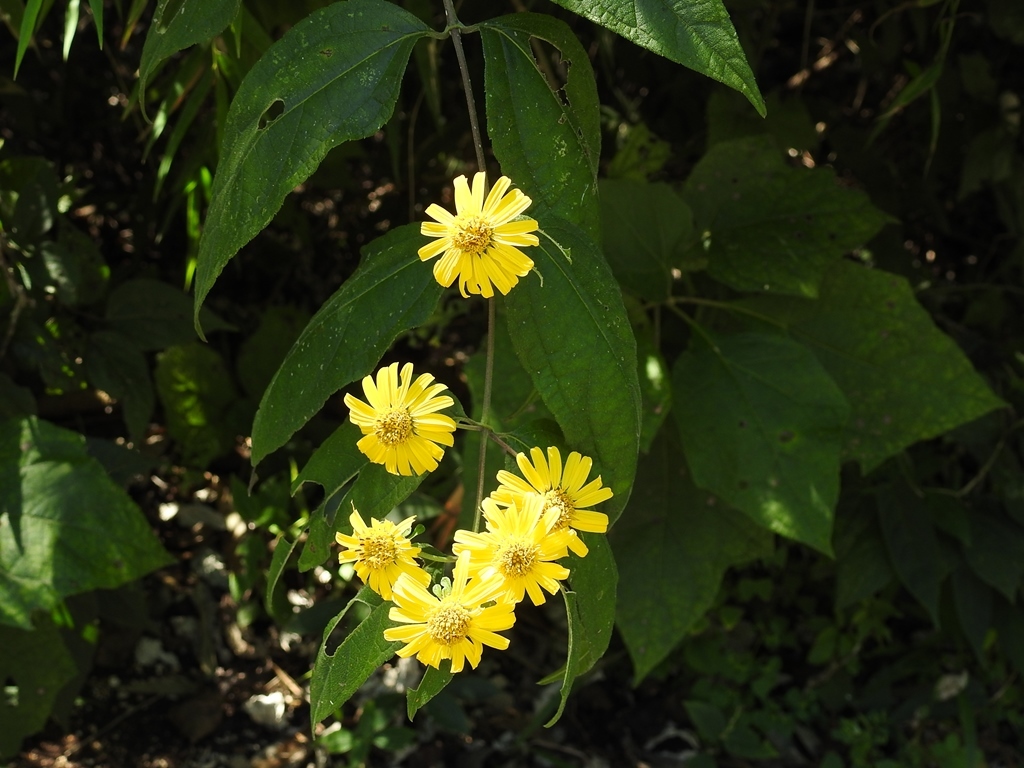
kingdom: Plantae
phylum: Tracheophyta
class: Magnoliopsida
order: Asterales
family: Asteraceae
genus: Lundellianthus
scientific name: Lundellianthus breedlovei
